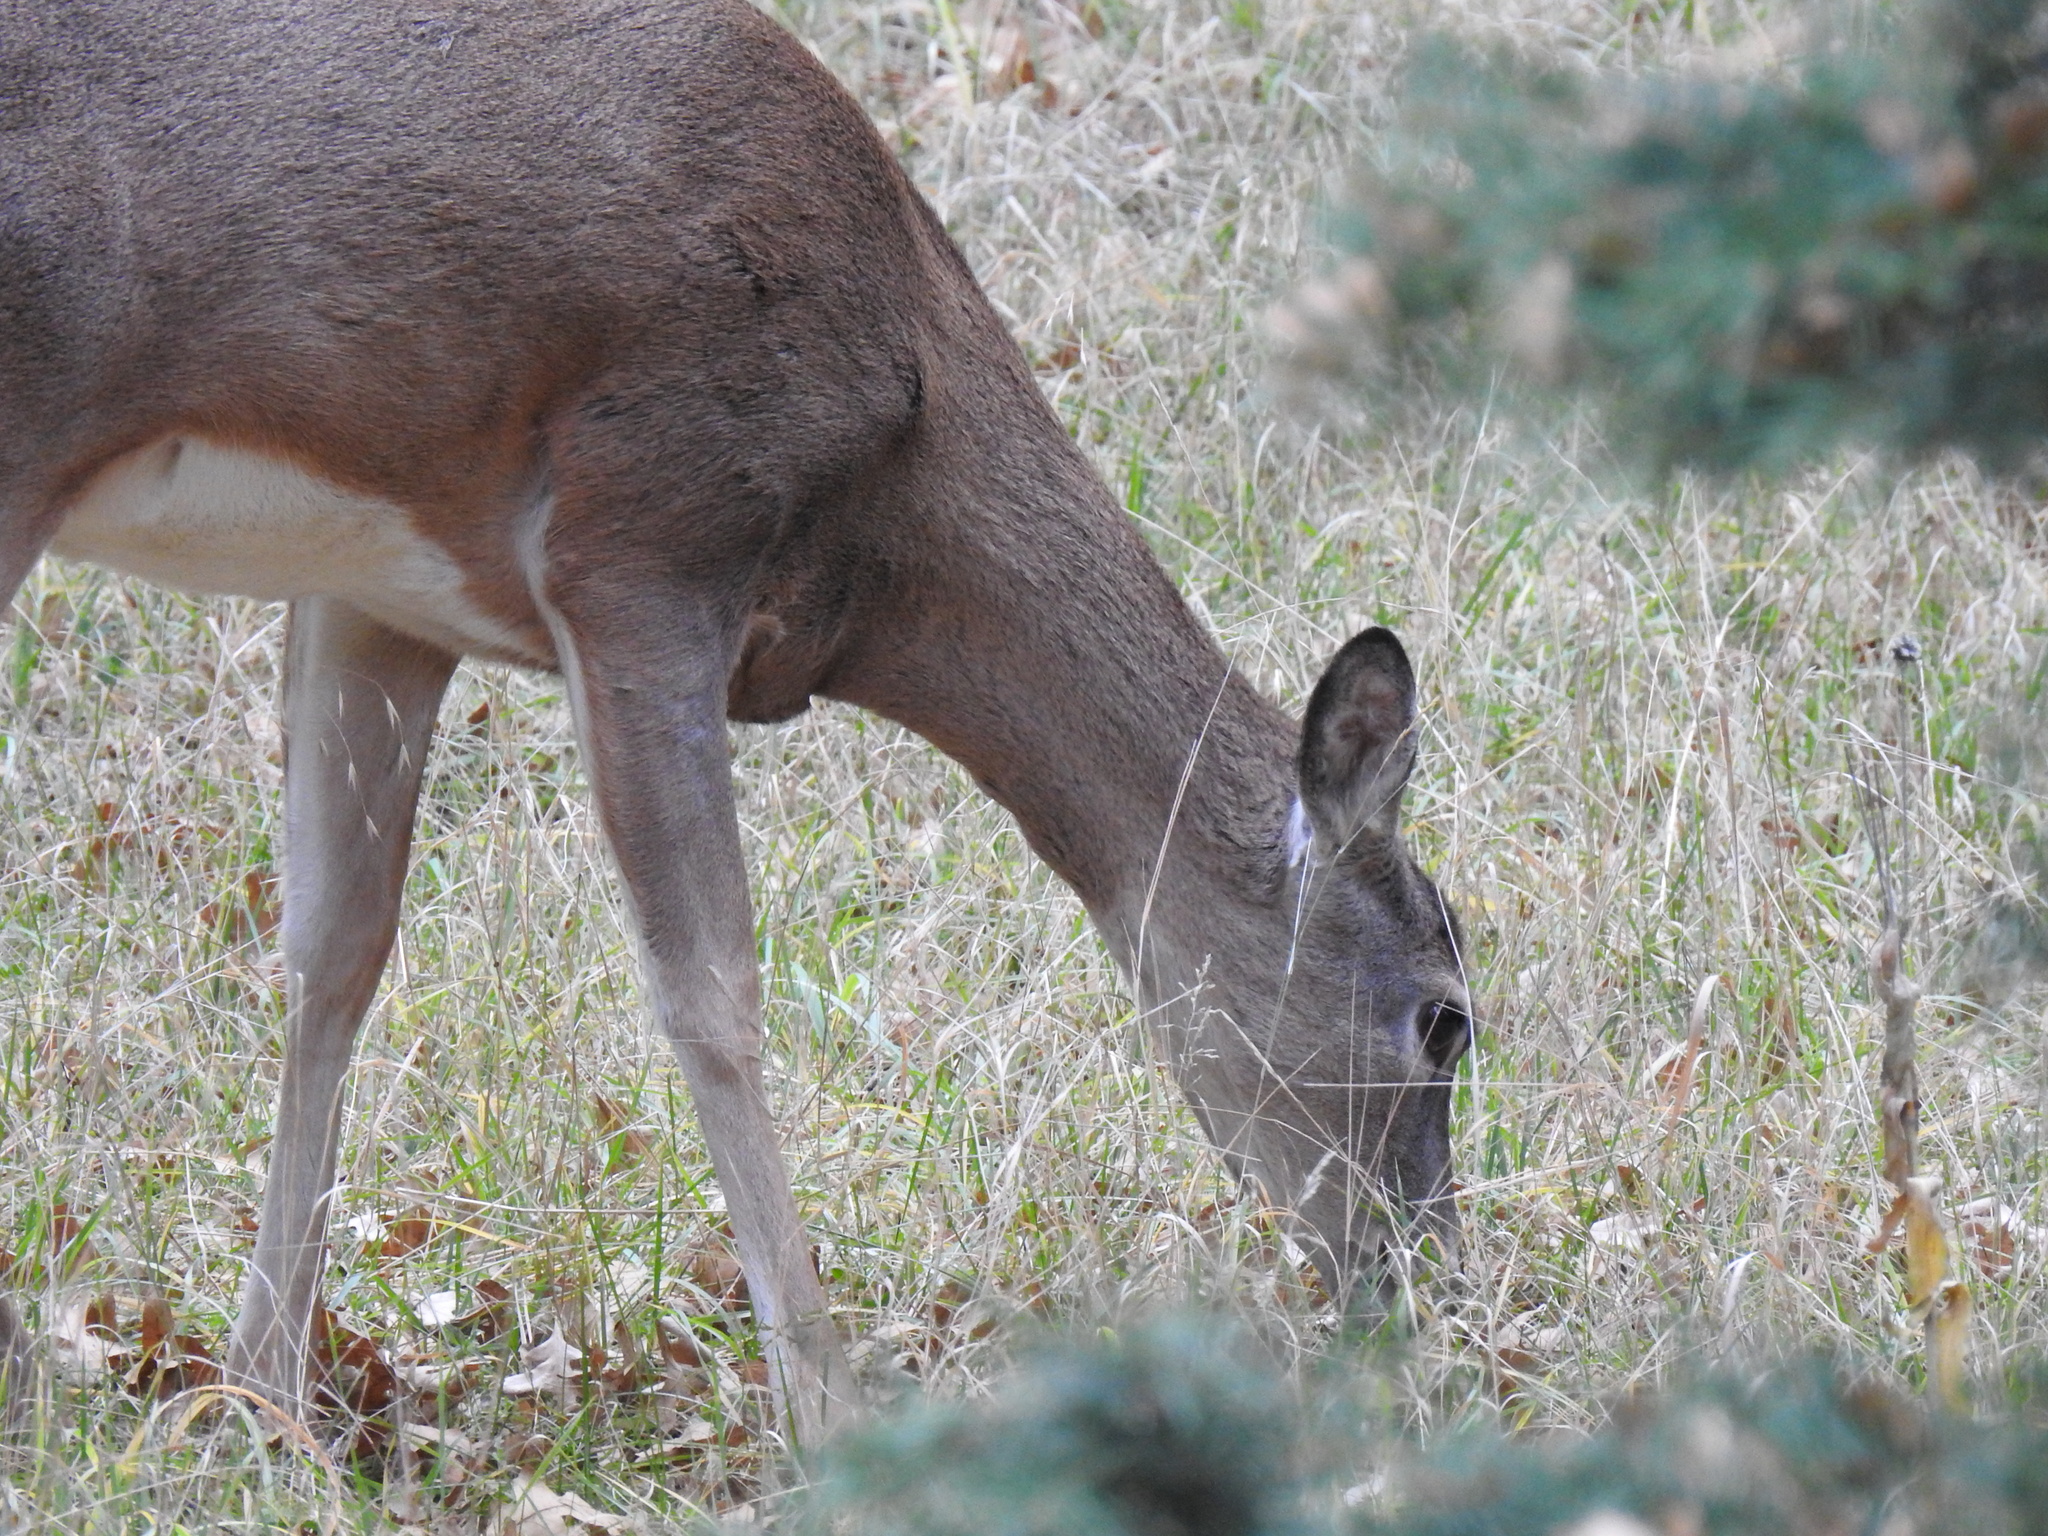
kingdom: Animalia
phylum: Chordata
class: Mammalia
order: Artiodactyla
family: Cervidae
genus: Odocoileus
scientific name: Odocoileus virginianus
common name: White-tailed deer
